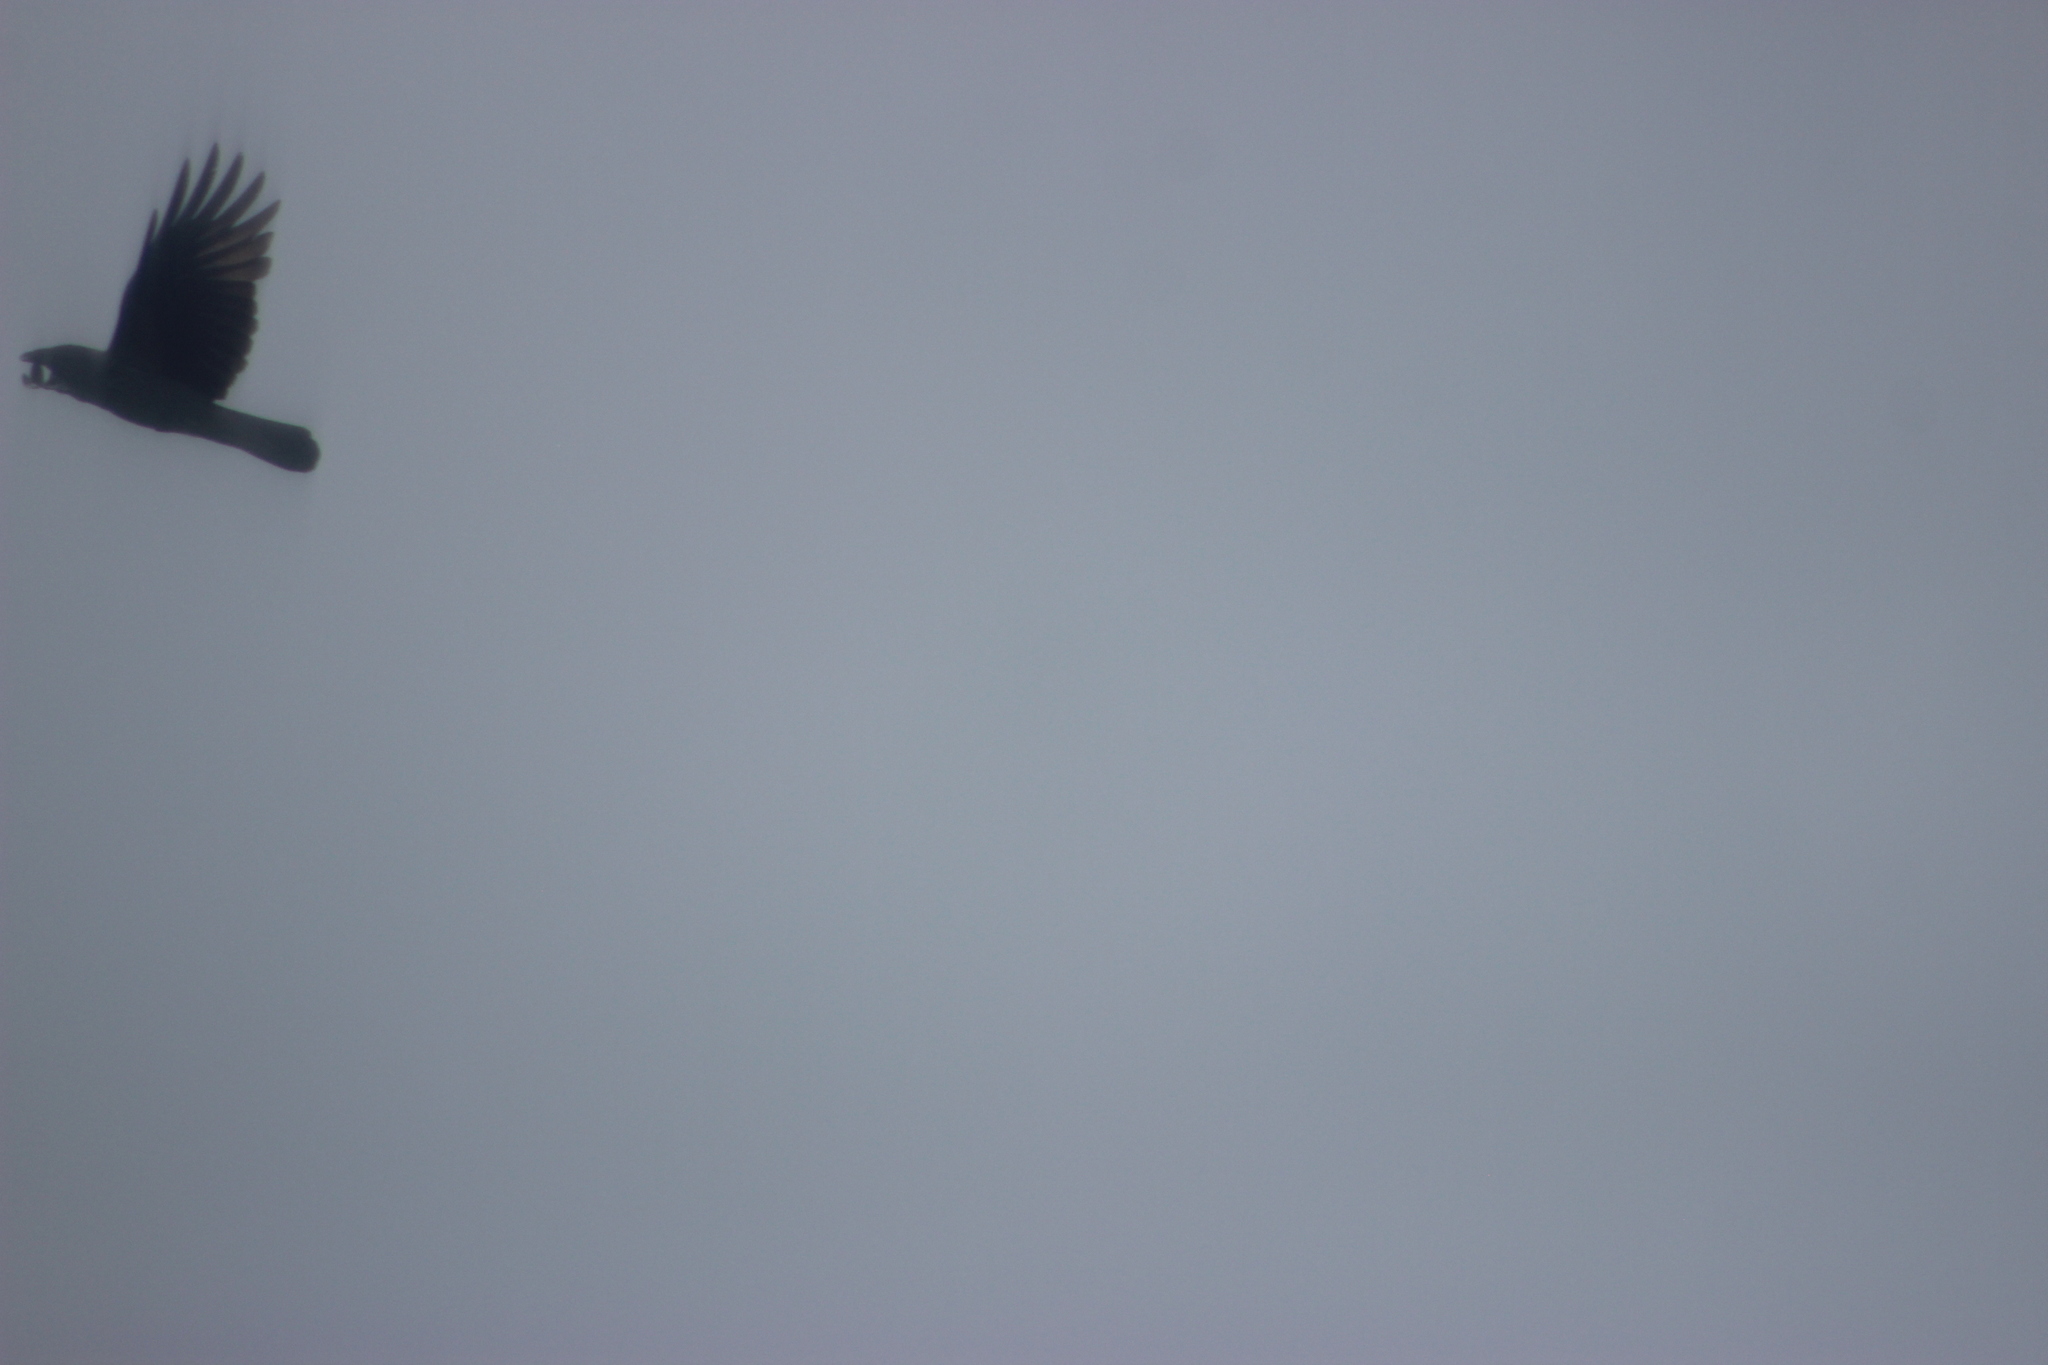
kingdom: Animalia
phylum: Chordata
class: Aves
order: Passeriformes
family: Corvidae
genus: Corvus
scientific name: Corvus corax
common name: Common raven
